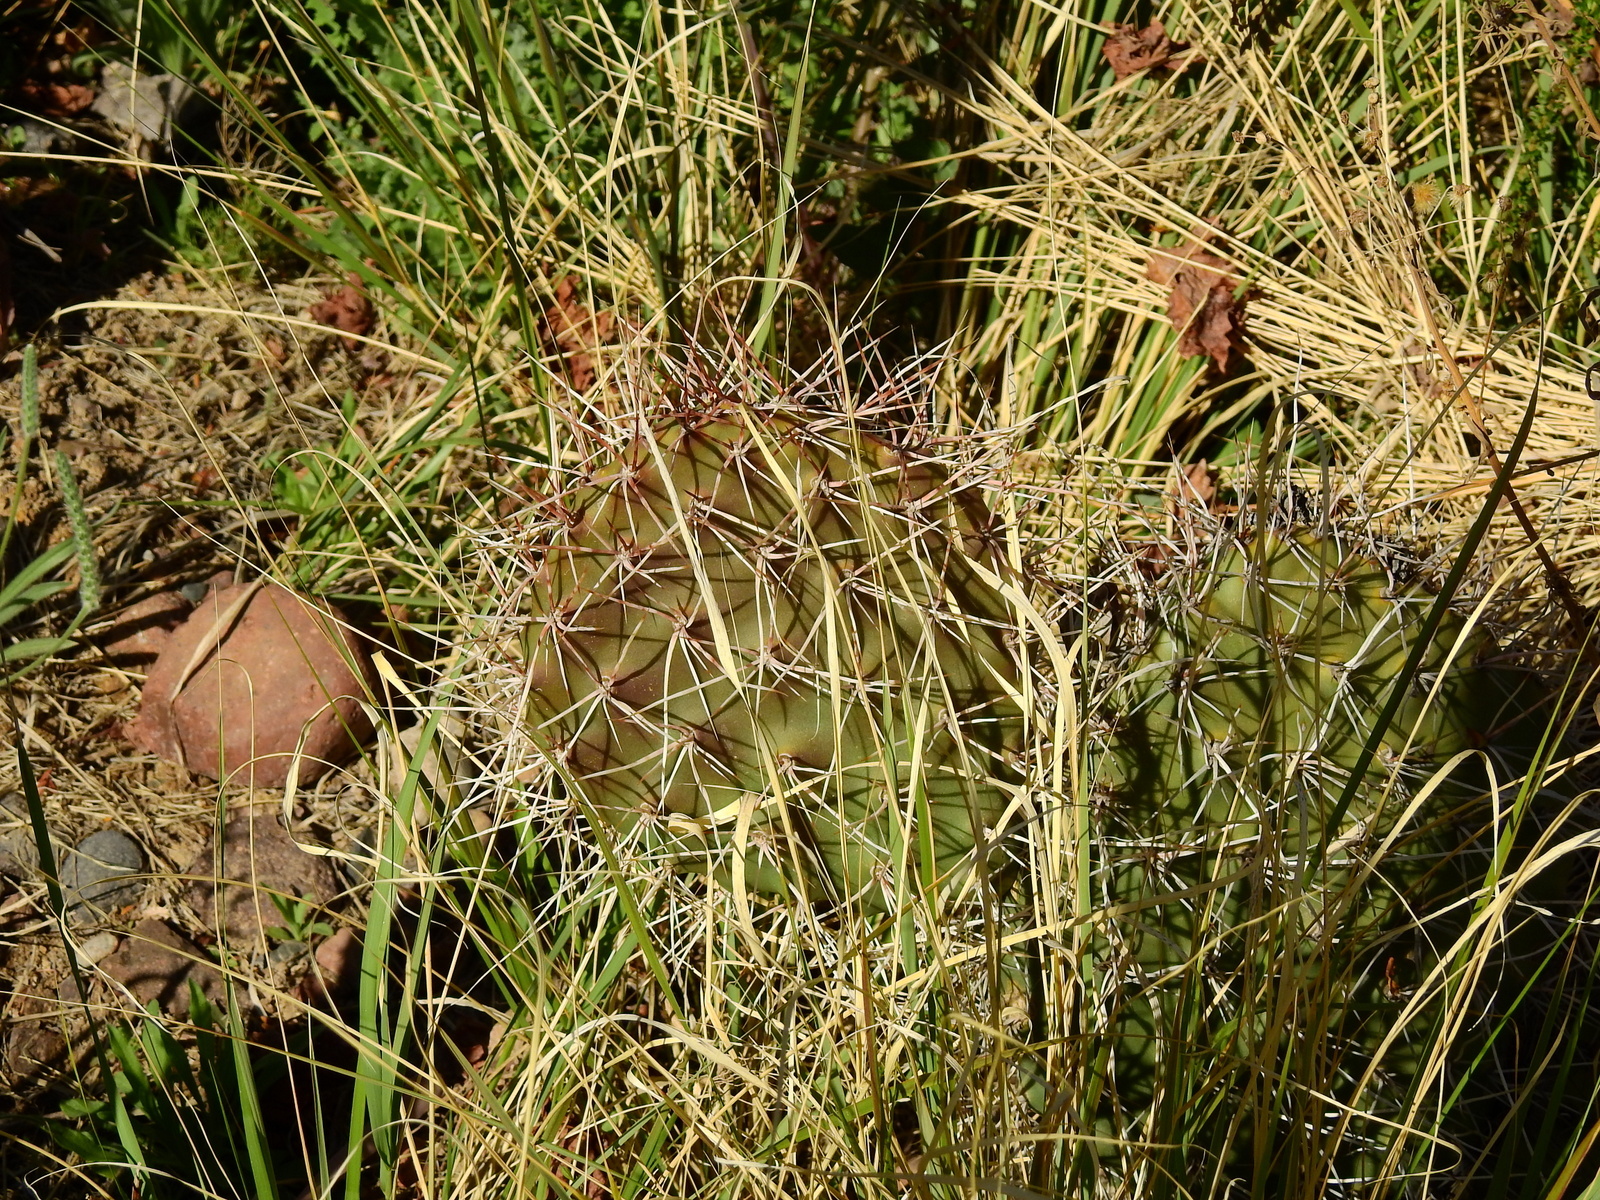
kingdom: Plantae
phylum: Tracheophyta
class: Magnoliopsida
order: Caryophyllales
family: Cactaceae
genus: Opuntia
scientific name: Opuntia sulphurea
